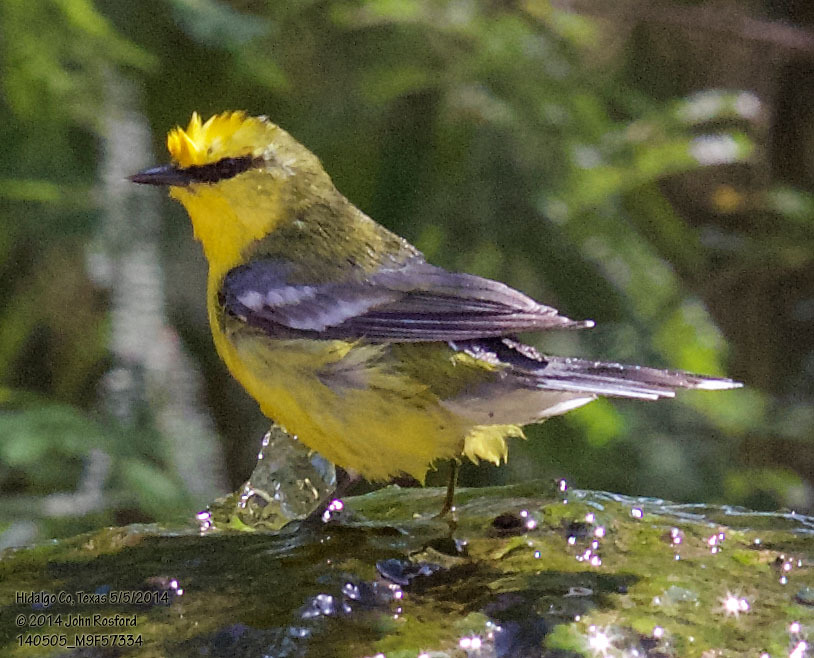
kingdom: Animalia
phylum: Chordata
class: Aves
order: Passeriformes
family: Parulidae
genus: Vermivora
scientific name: Vermivora cyanoptera
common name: Blue-winged warbler
